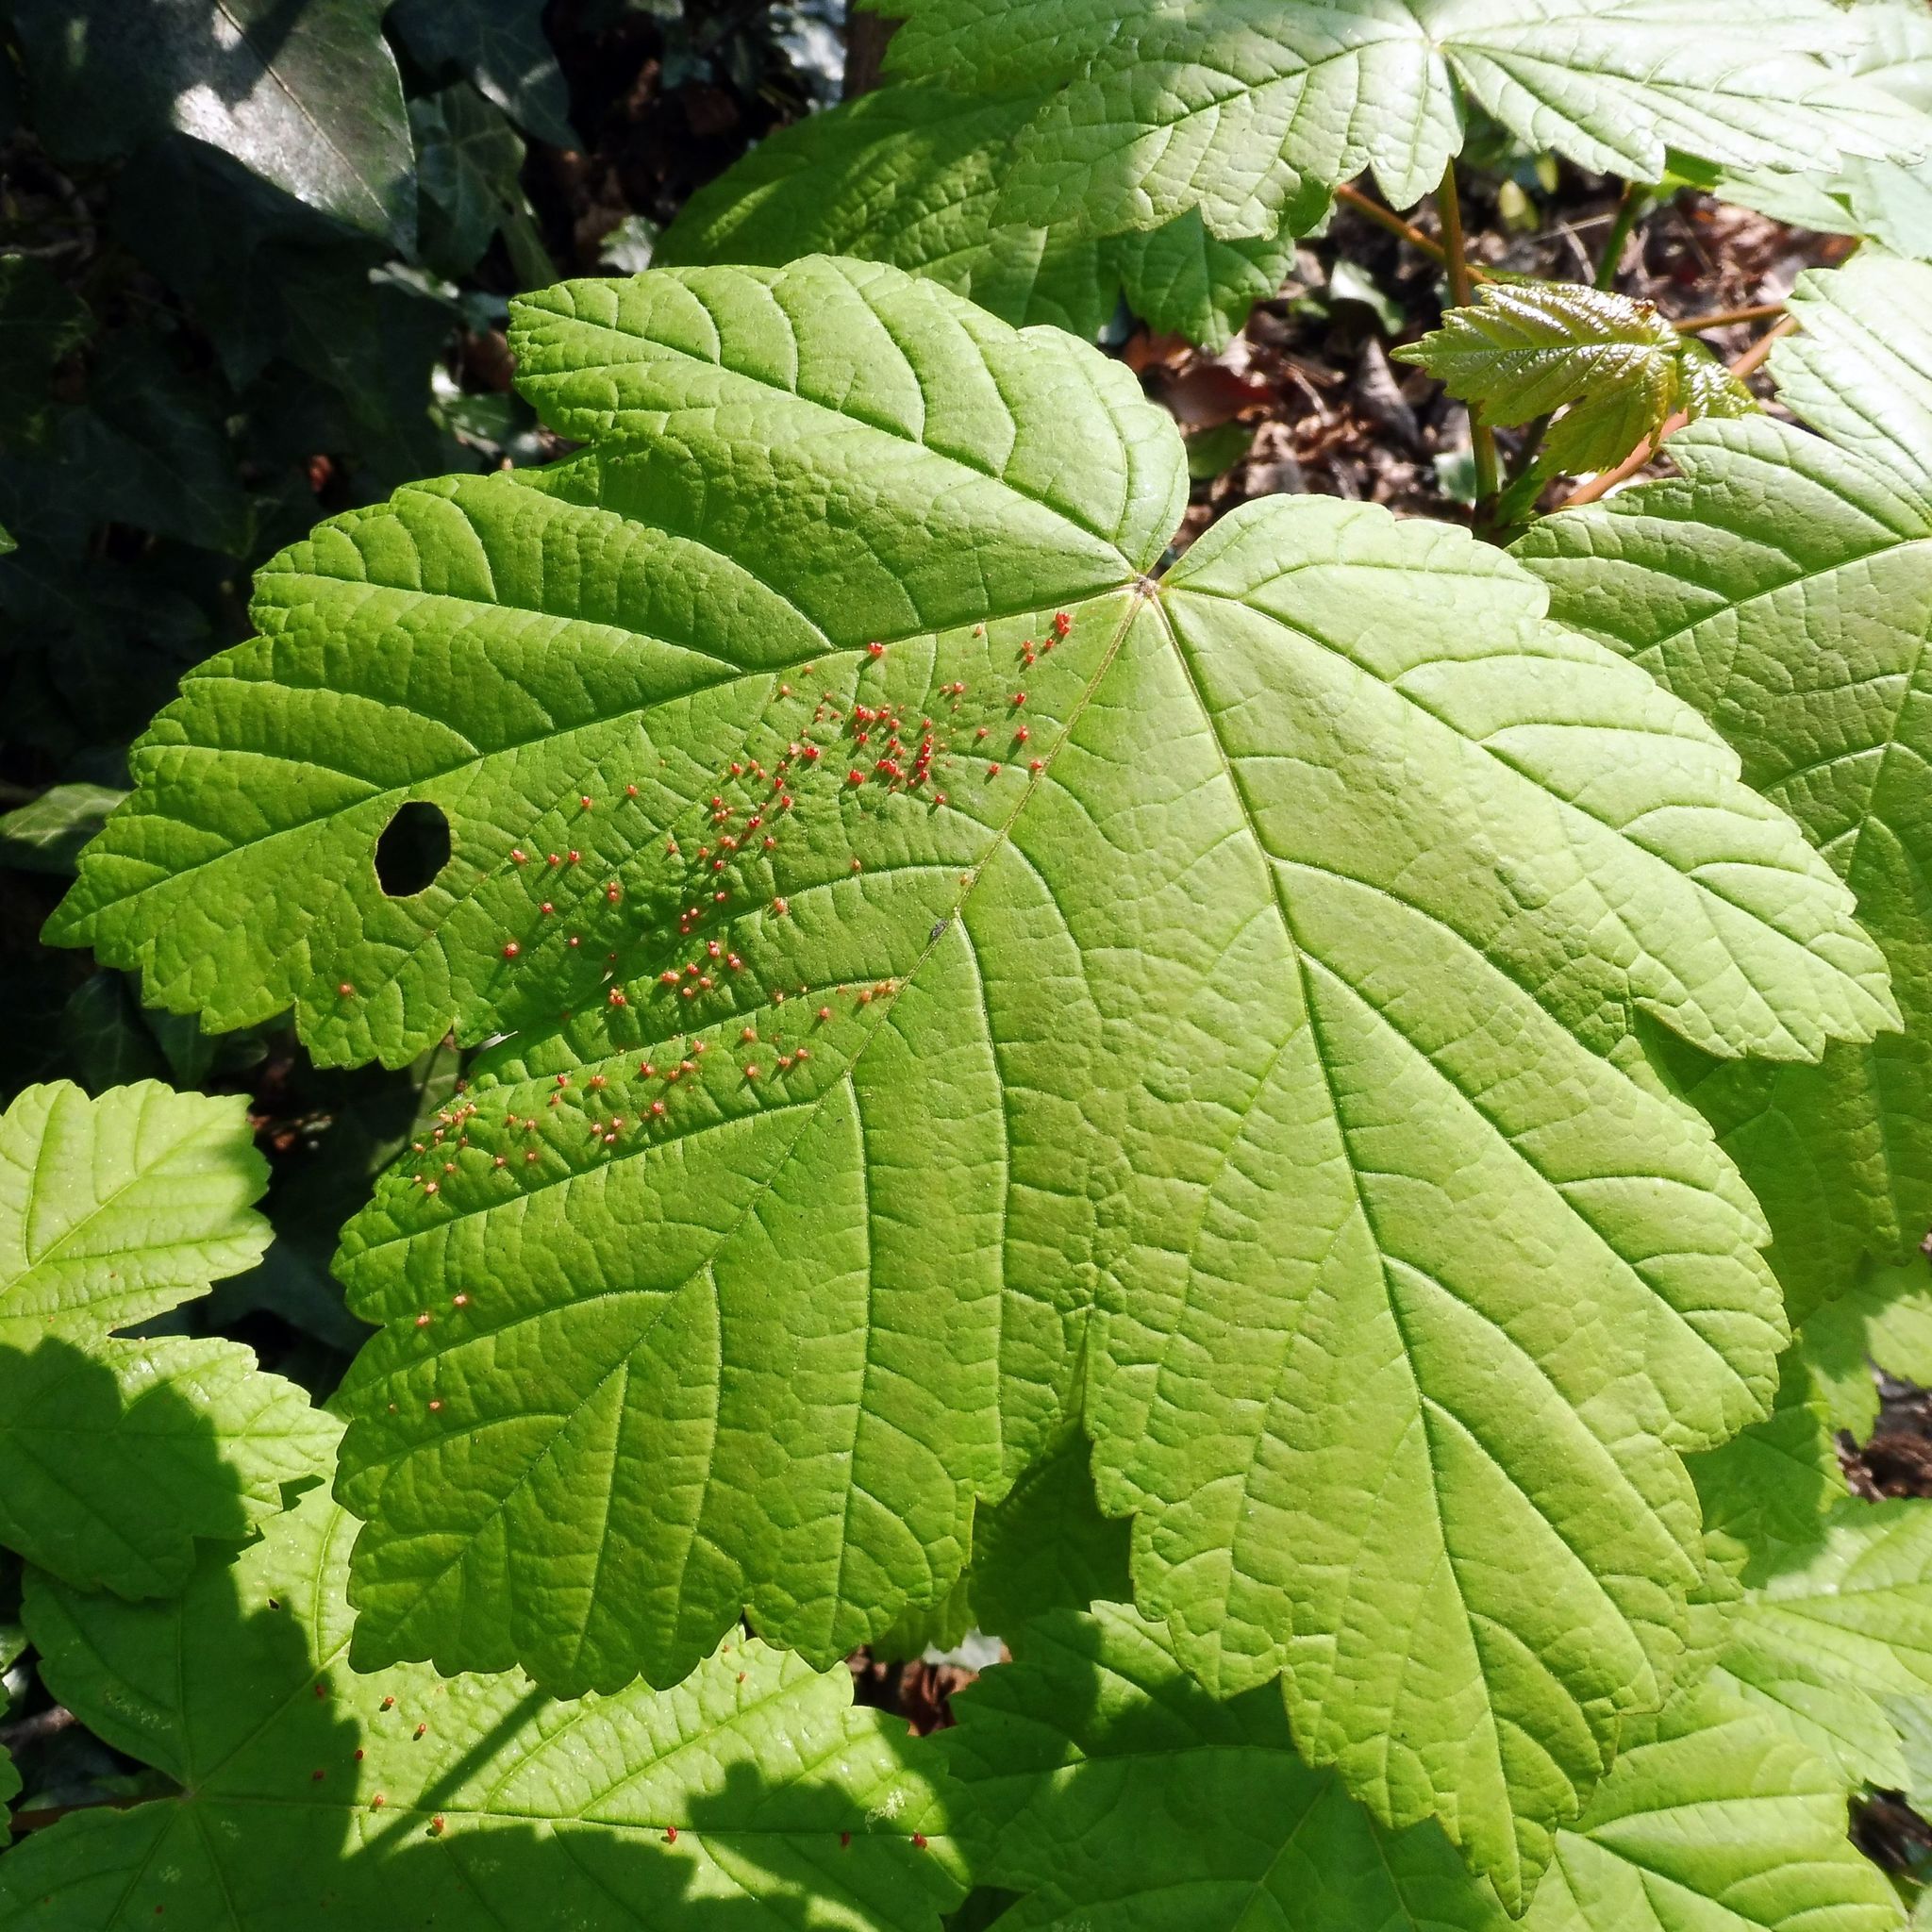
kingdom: Animalia
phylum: Arthropoda
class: Arachnida
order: Trombidiformes
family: Eriophyidae
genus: Aceria
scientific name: Aceria cephaloneus
